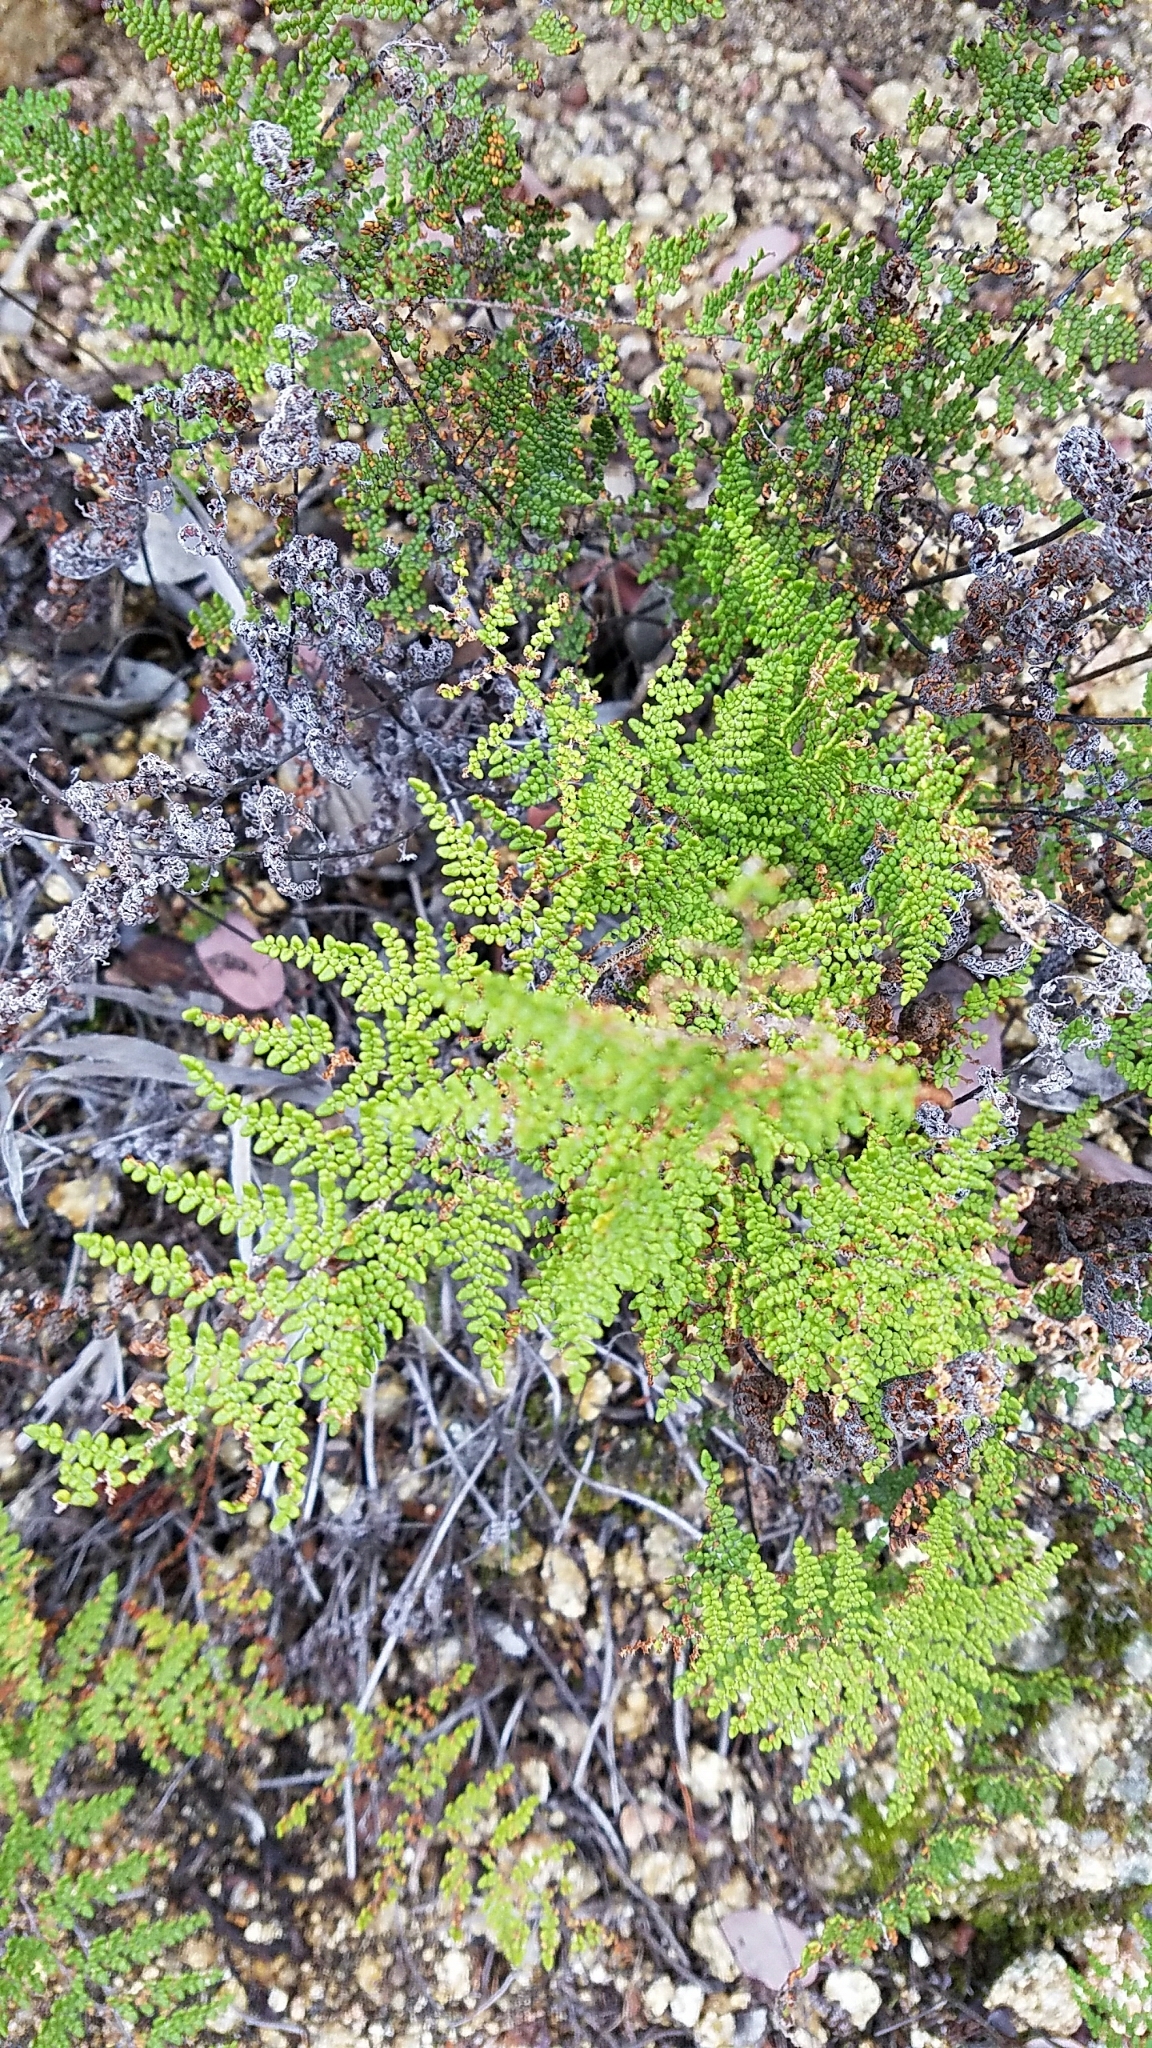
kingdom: Plantae
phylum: Tracheophyta
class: Polypodiopsida
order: Polypodiales
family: Pteridaceae
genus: Myriopteris
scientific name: Myriopteris clevelandii
